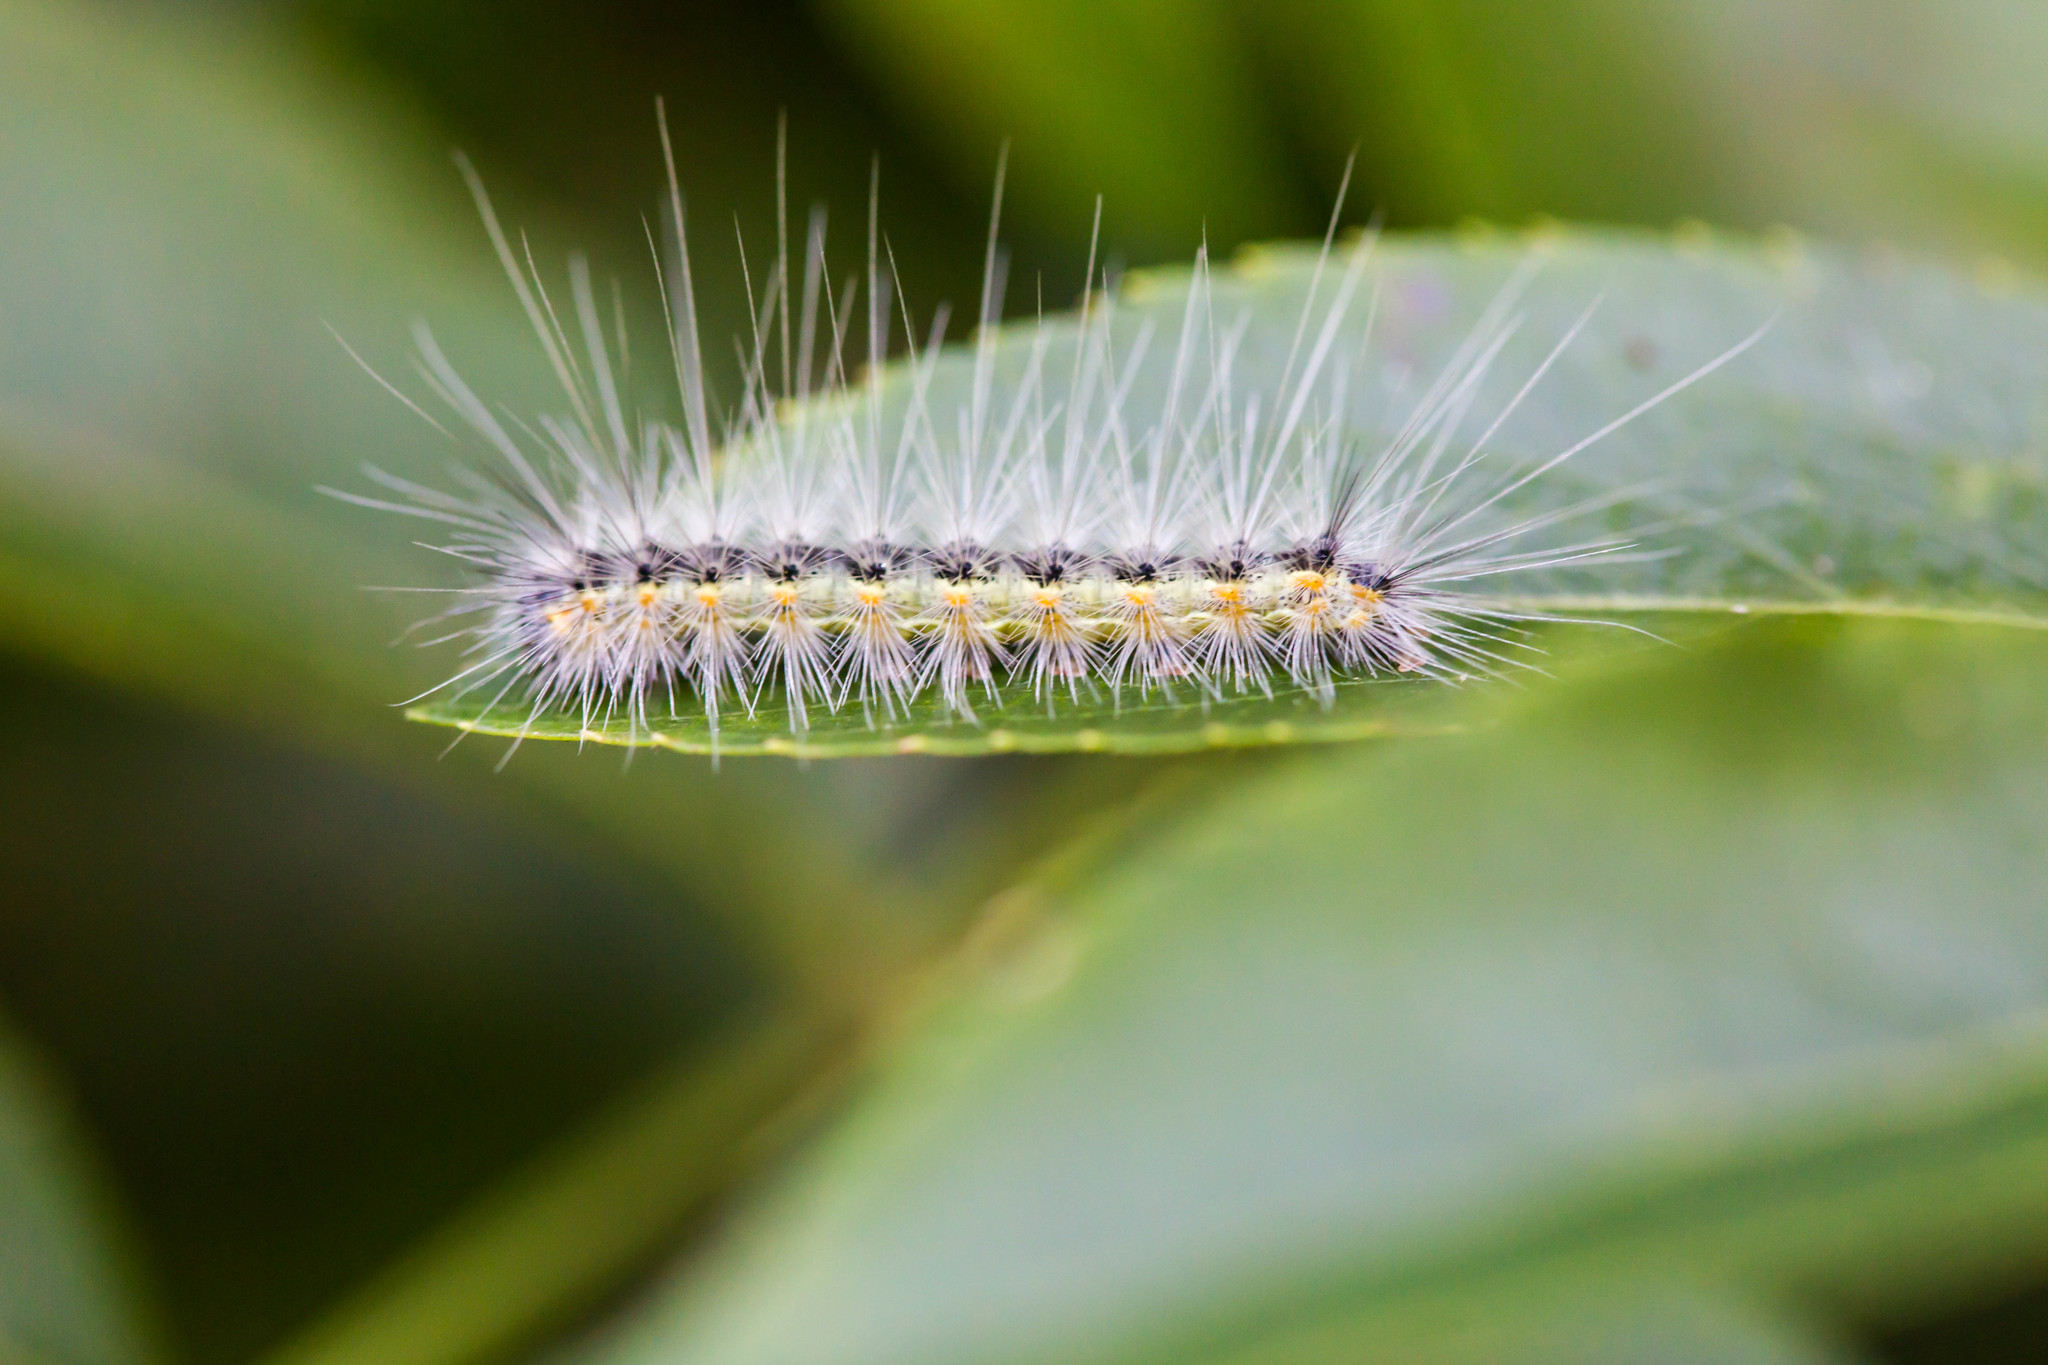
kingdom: Animalia
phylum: Arthropoda
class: Insecta
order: Lepidoptera
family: Erebidae
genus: Hyphantria
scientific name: Hyphantria cunea
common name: American white moth
